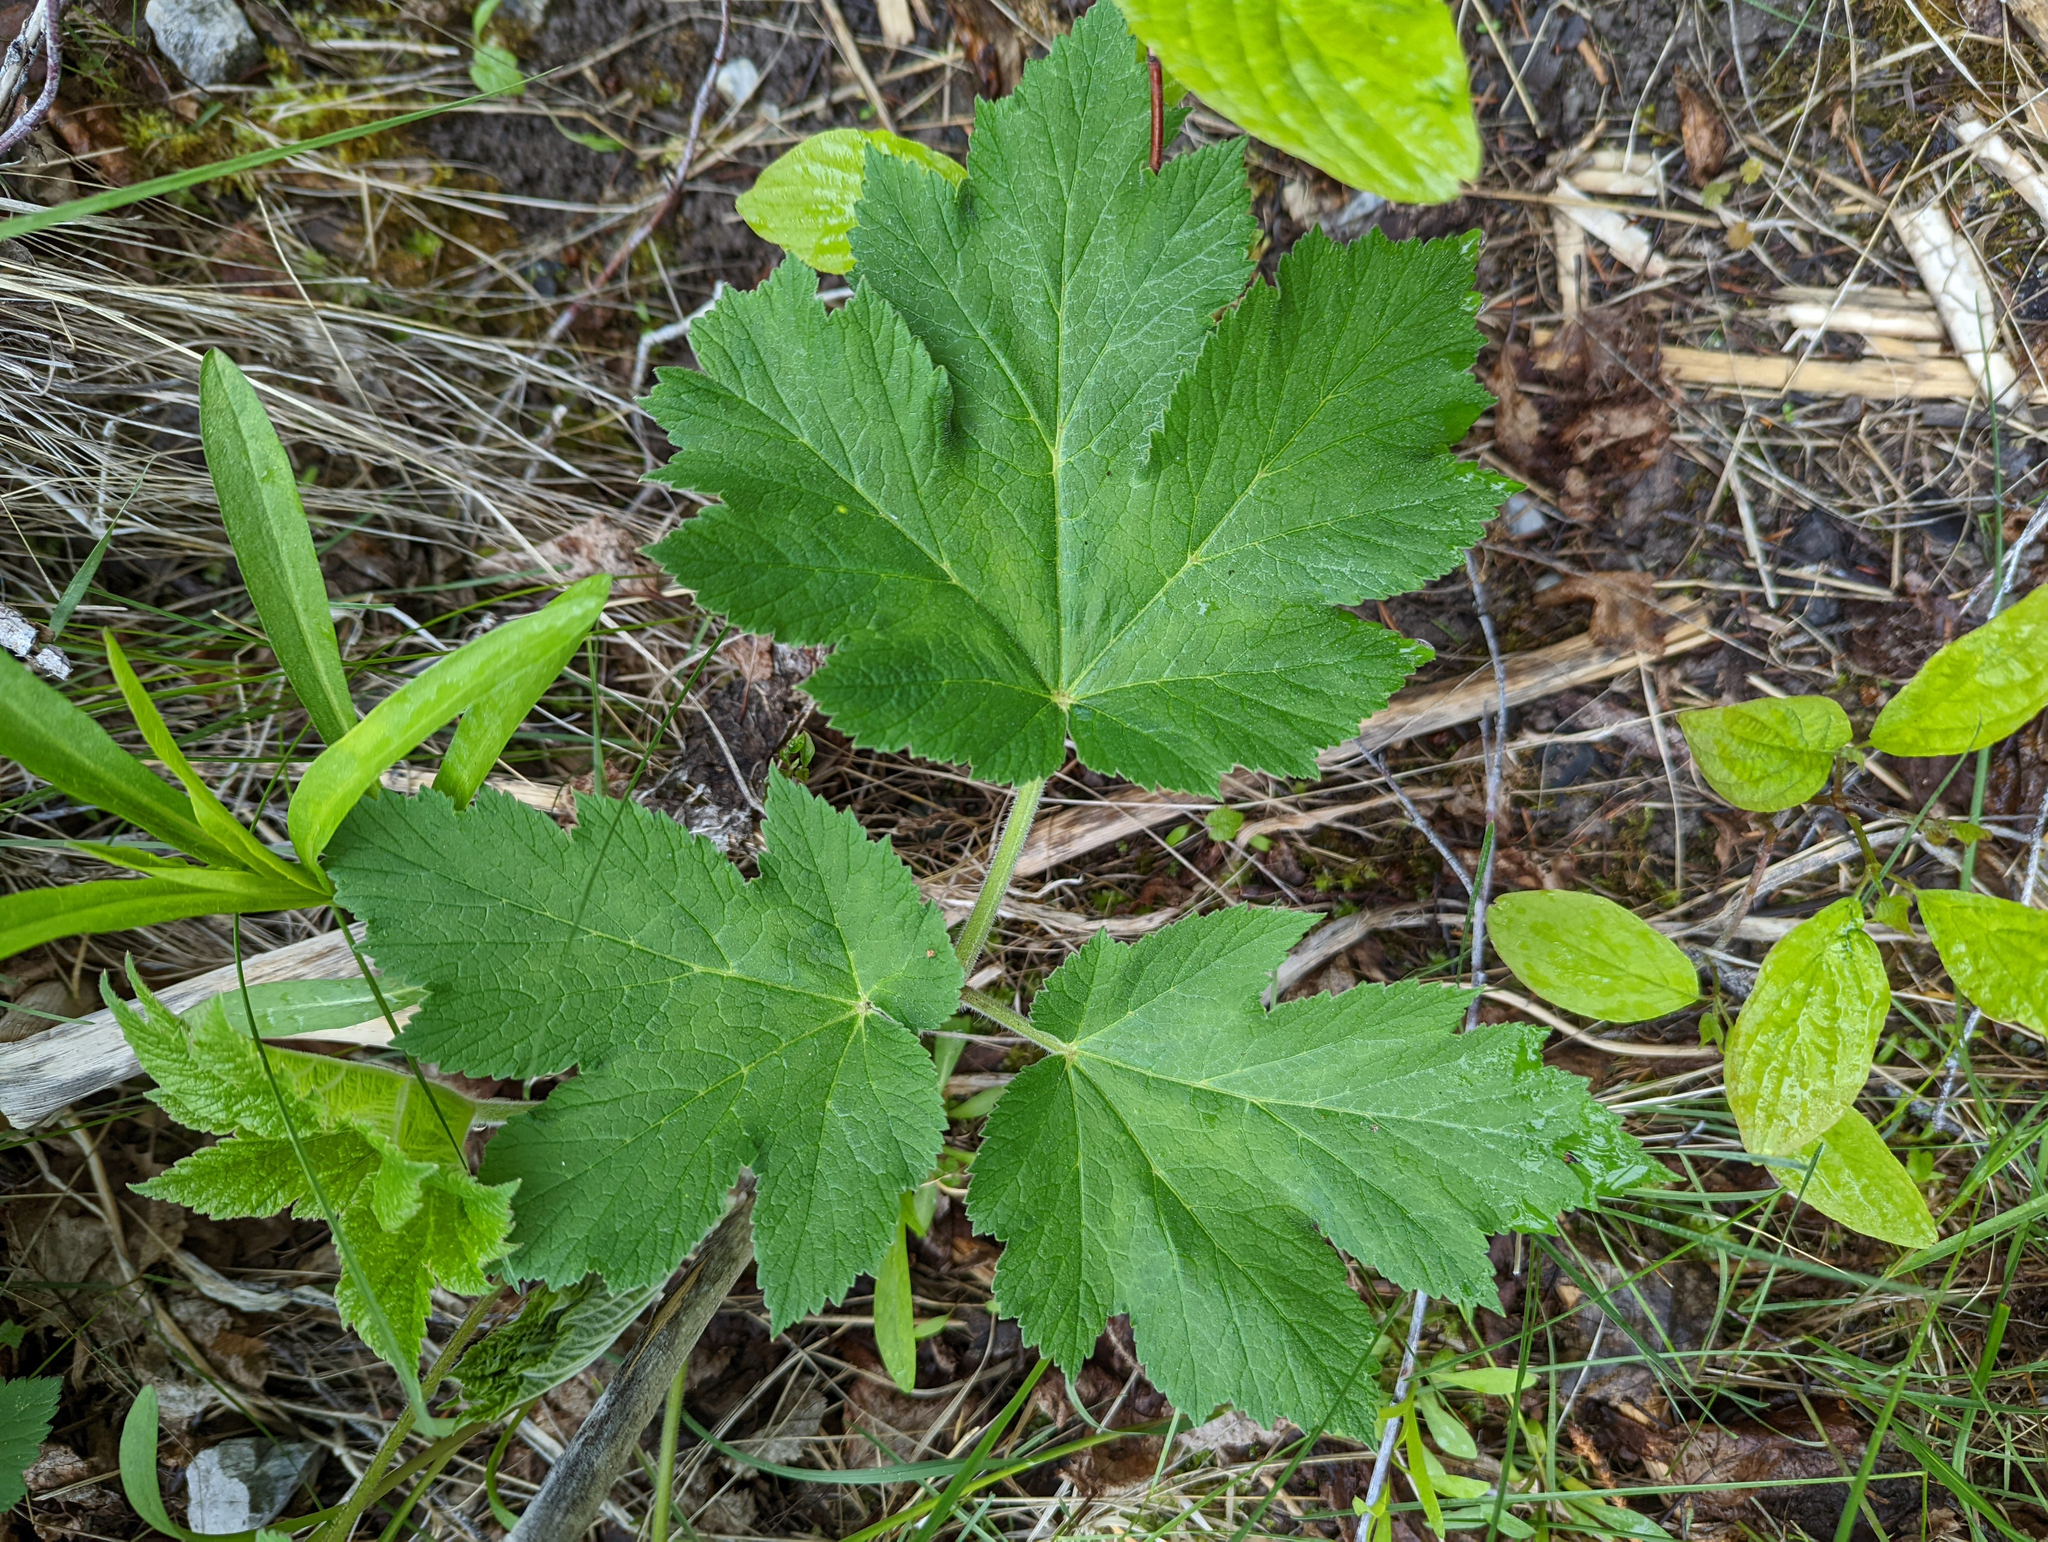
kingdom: Plantae
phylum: Tracheophyta
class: Magnoliopsida
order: Apiales
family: Apiaceae
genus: Heracleum
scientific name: Heracleum maximum
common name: American cow parsnip
